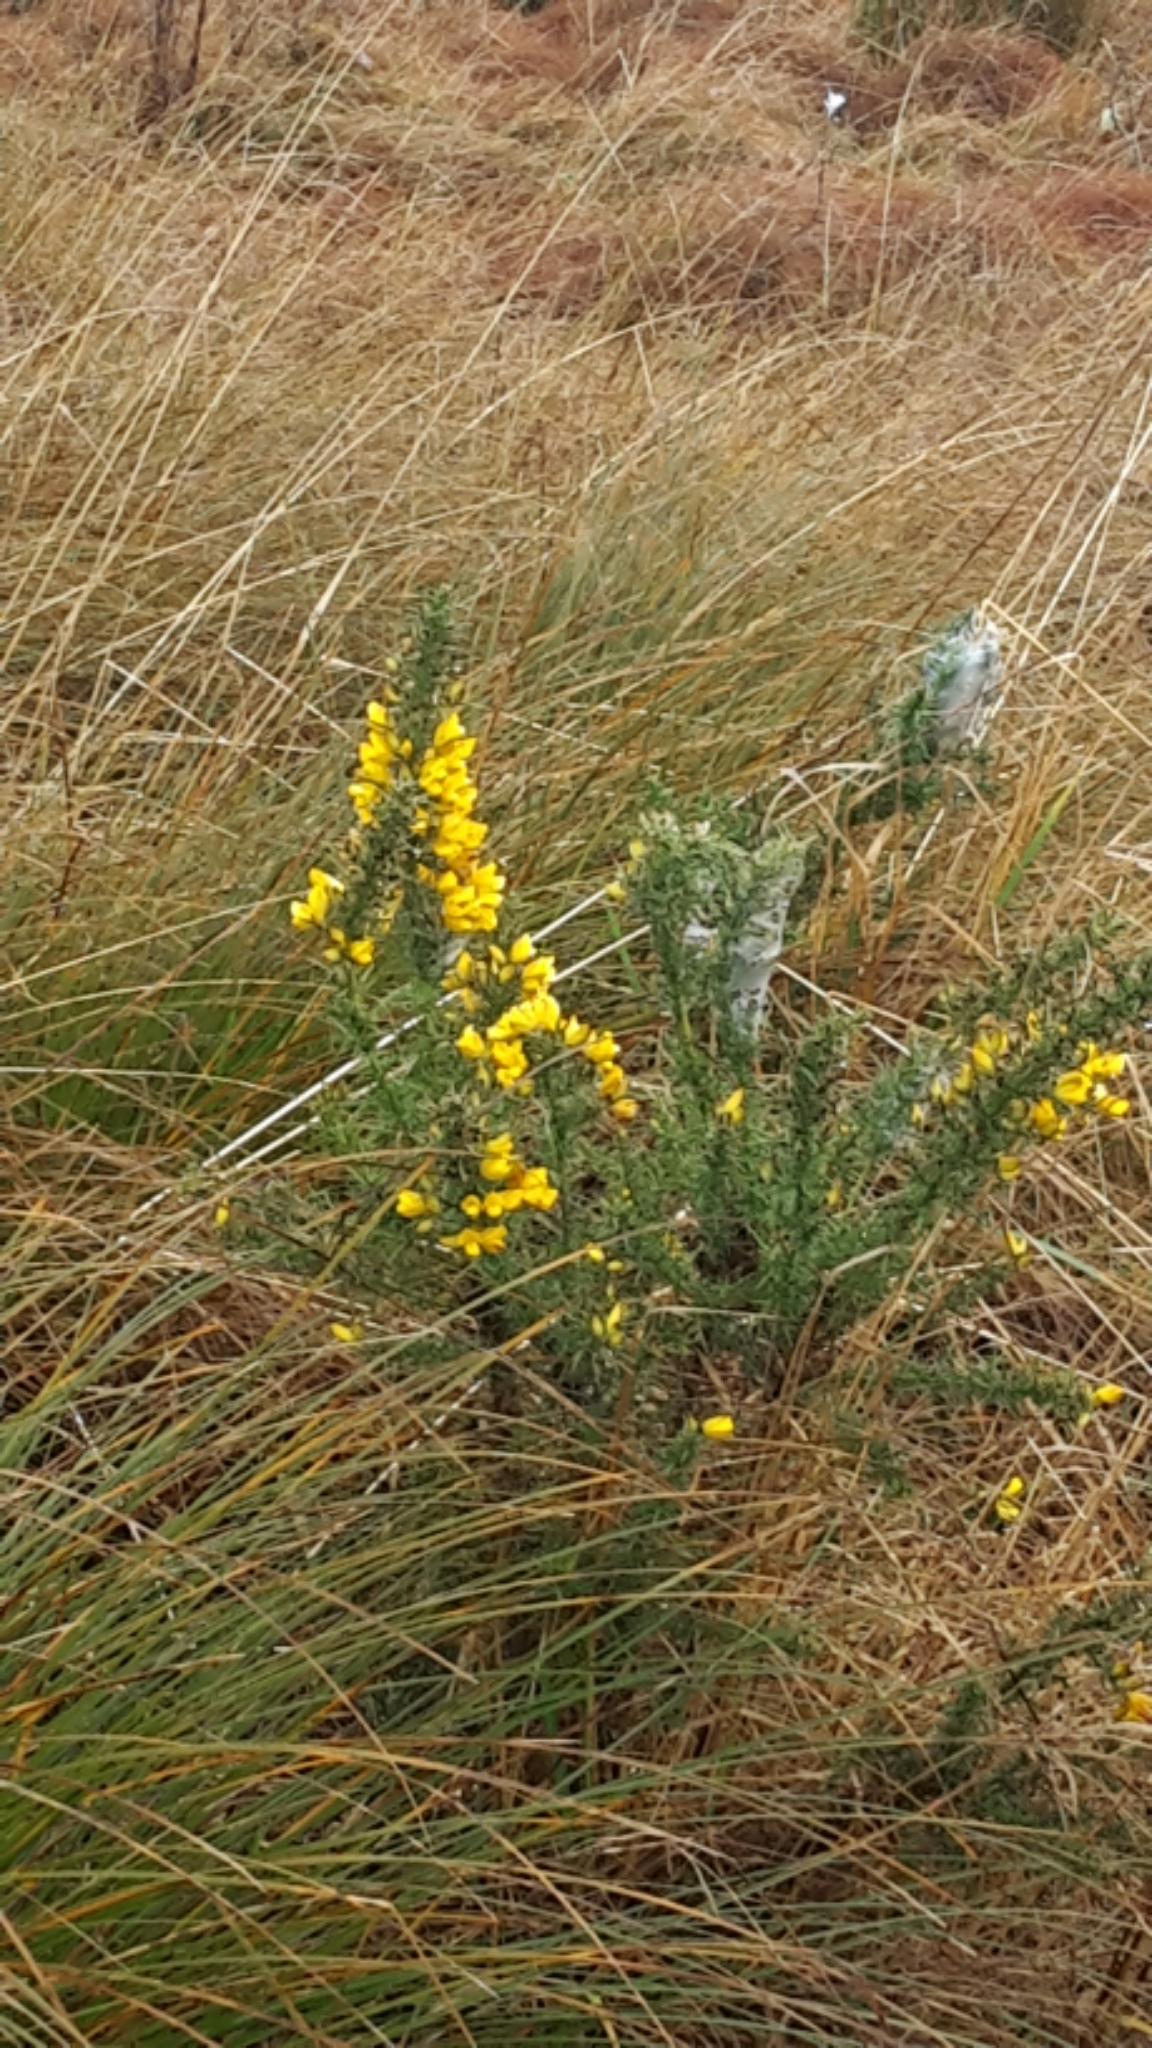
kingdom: Plantae
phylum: Tracheophyta
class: Magnoliopsida
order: Fabales
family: Fabaceae
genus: Ulex
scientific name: Ulex europaeus
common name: Common gorse
